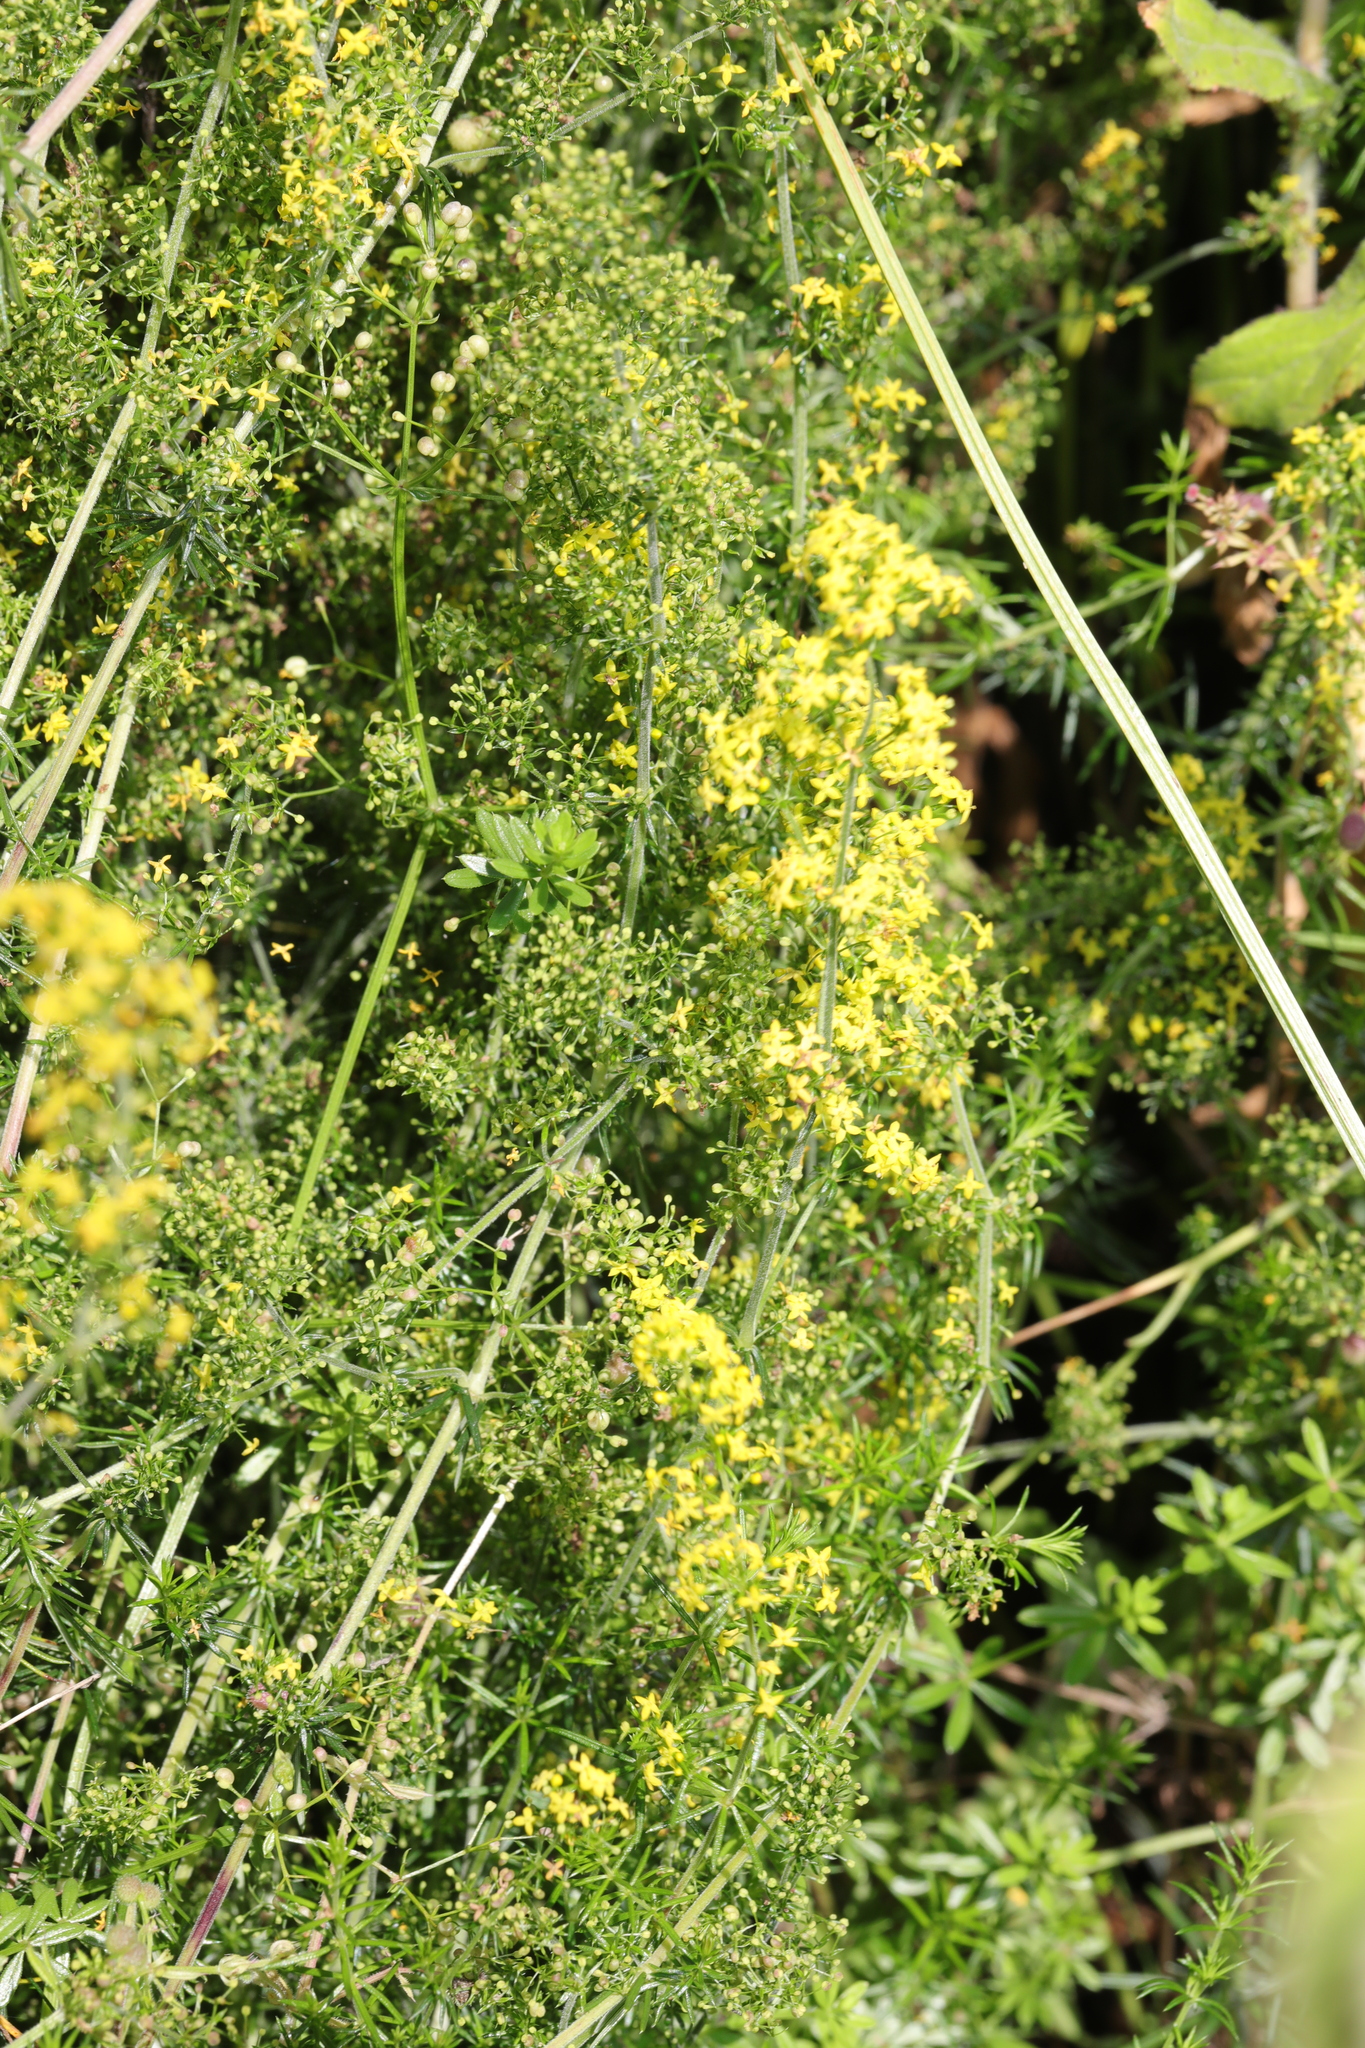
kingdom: Plantae
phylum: Tracheophyta
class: Magnoliopsida
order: Gentianales
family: Rubiaceae
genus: Galium
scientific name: Galium verum
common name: Lady's bedstraw
